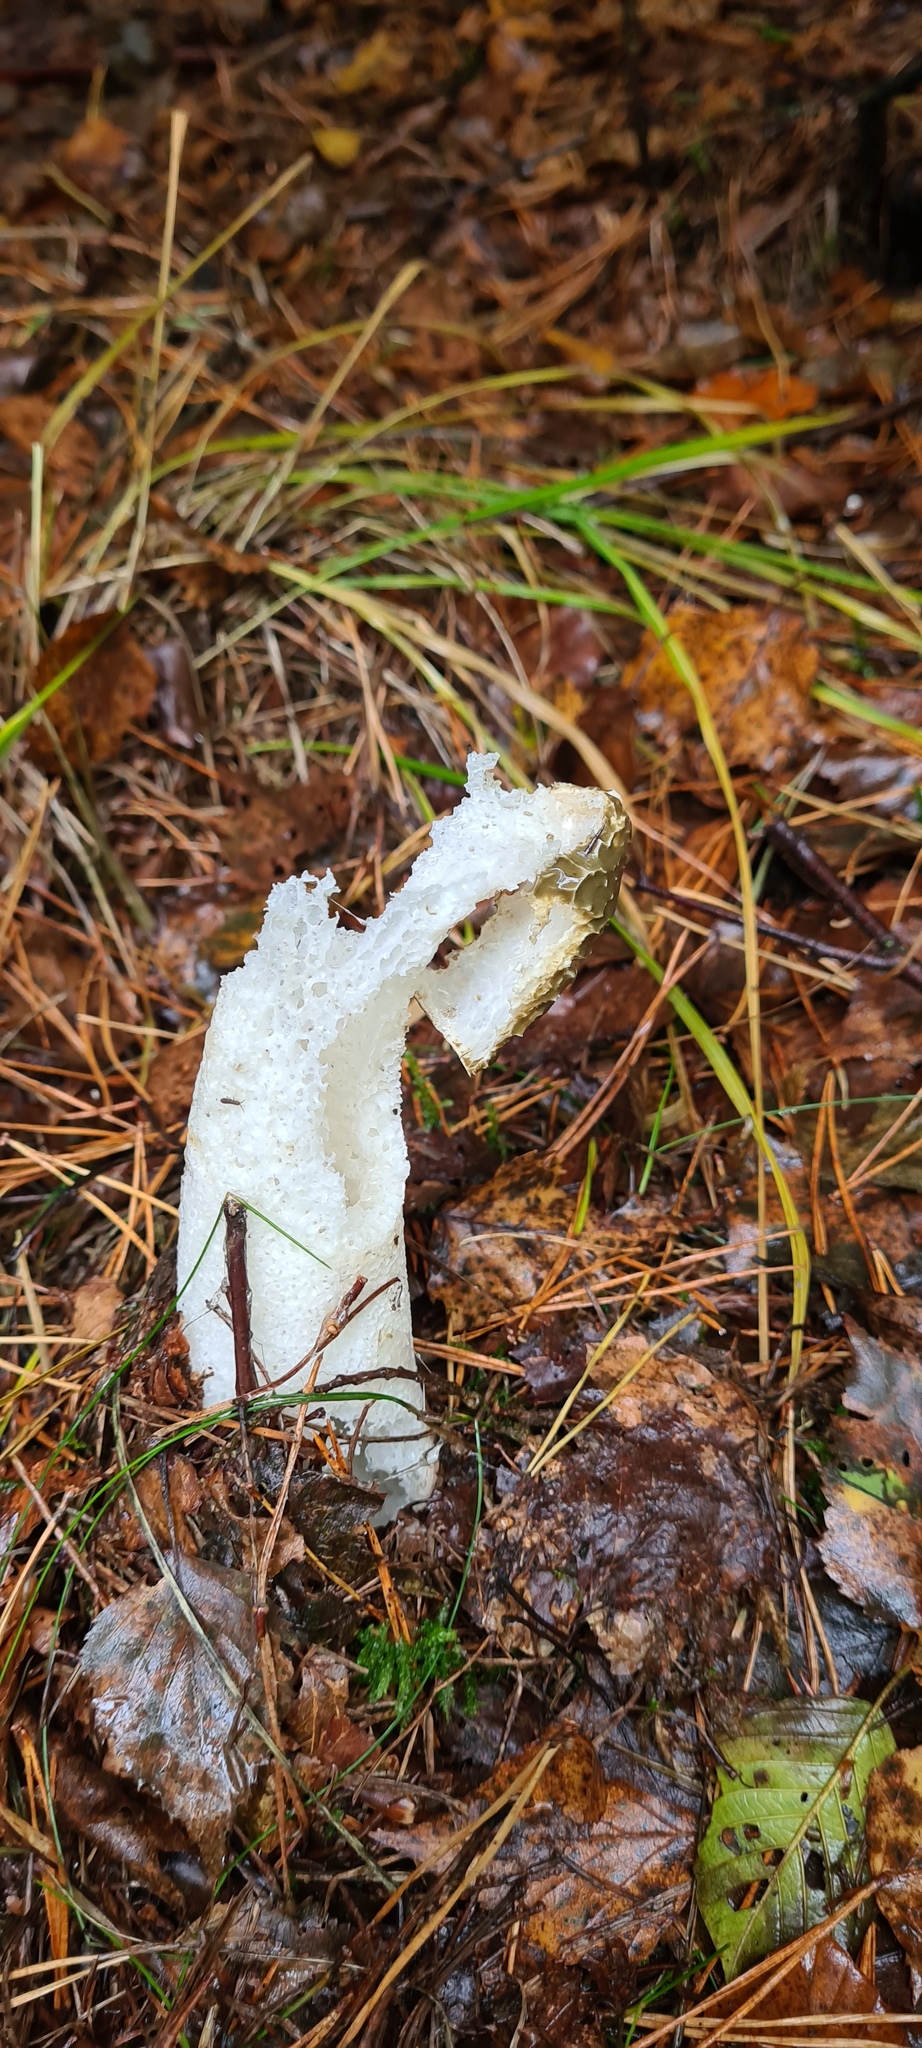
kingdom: Fungi
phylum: Basidiomycota
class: Agaricomycetes
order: Phallales
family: Phallaceae
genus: Phallus
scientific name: Phallus impudicus
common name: Common stinkhorn
